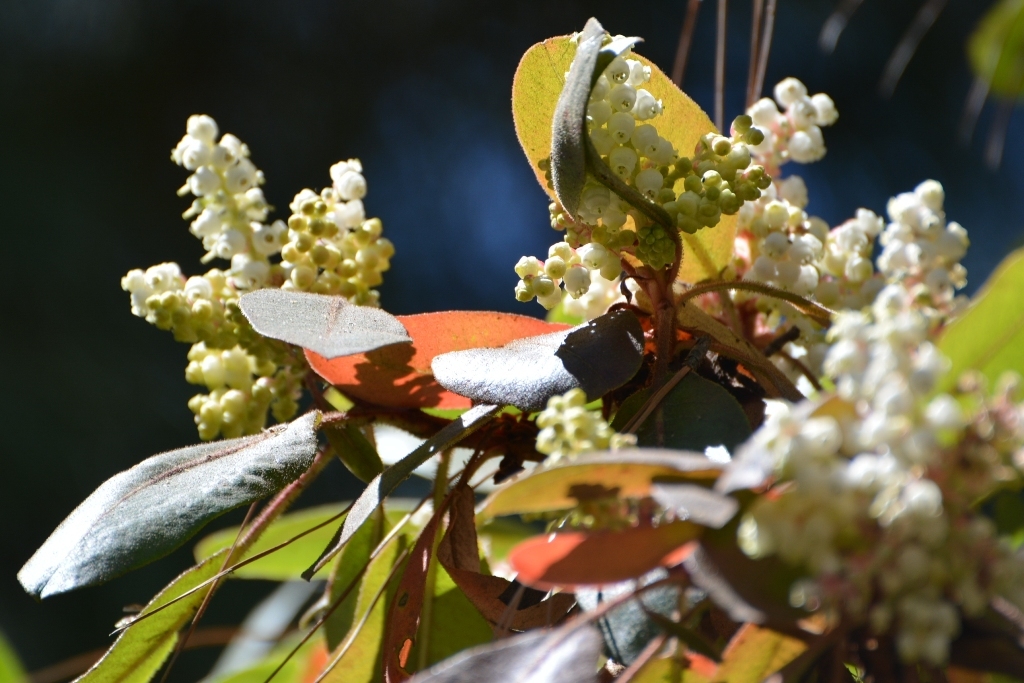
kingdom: Plantae
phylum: Tracheophyta
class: Magnoliopsida
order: Ericales
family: Ericaceae
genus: Arbutus
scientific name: Arbutus xalapensis
